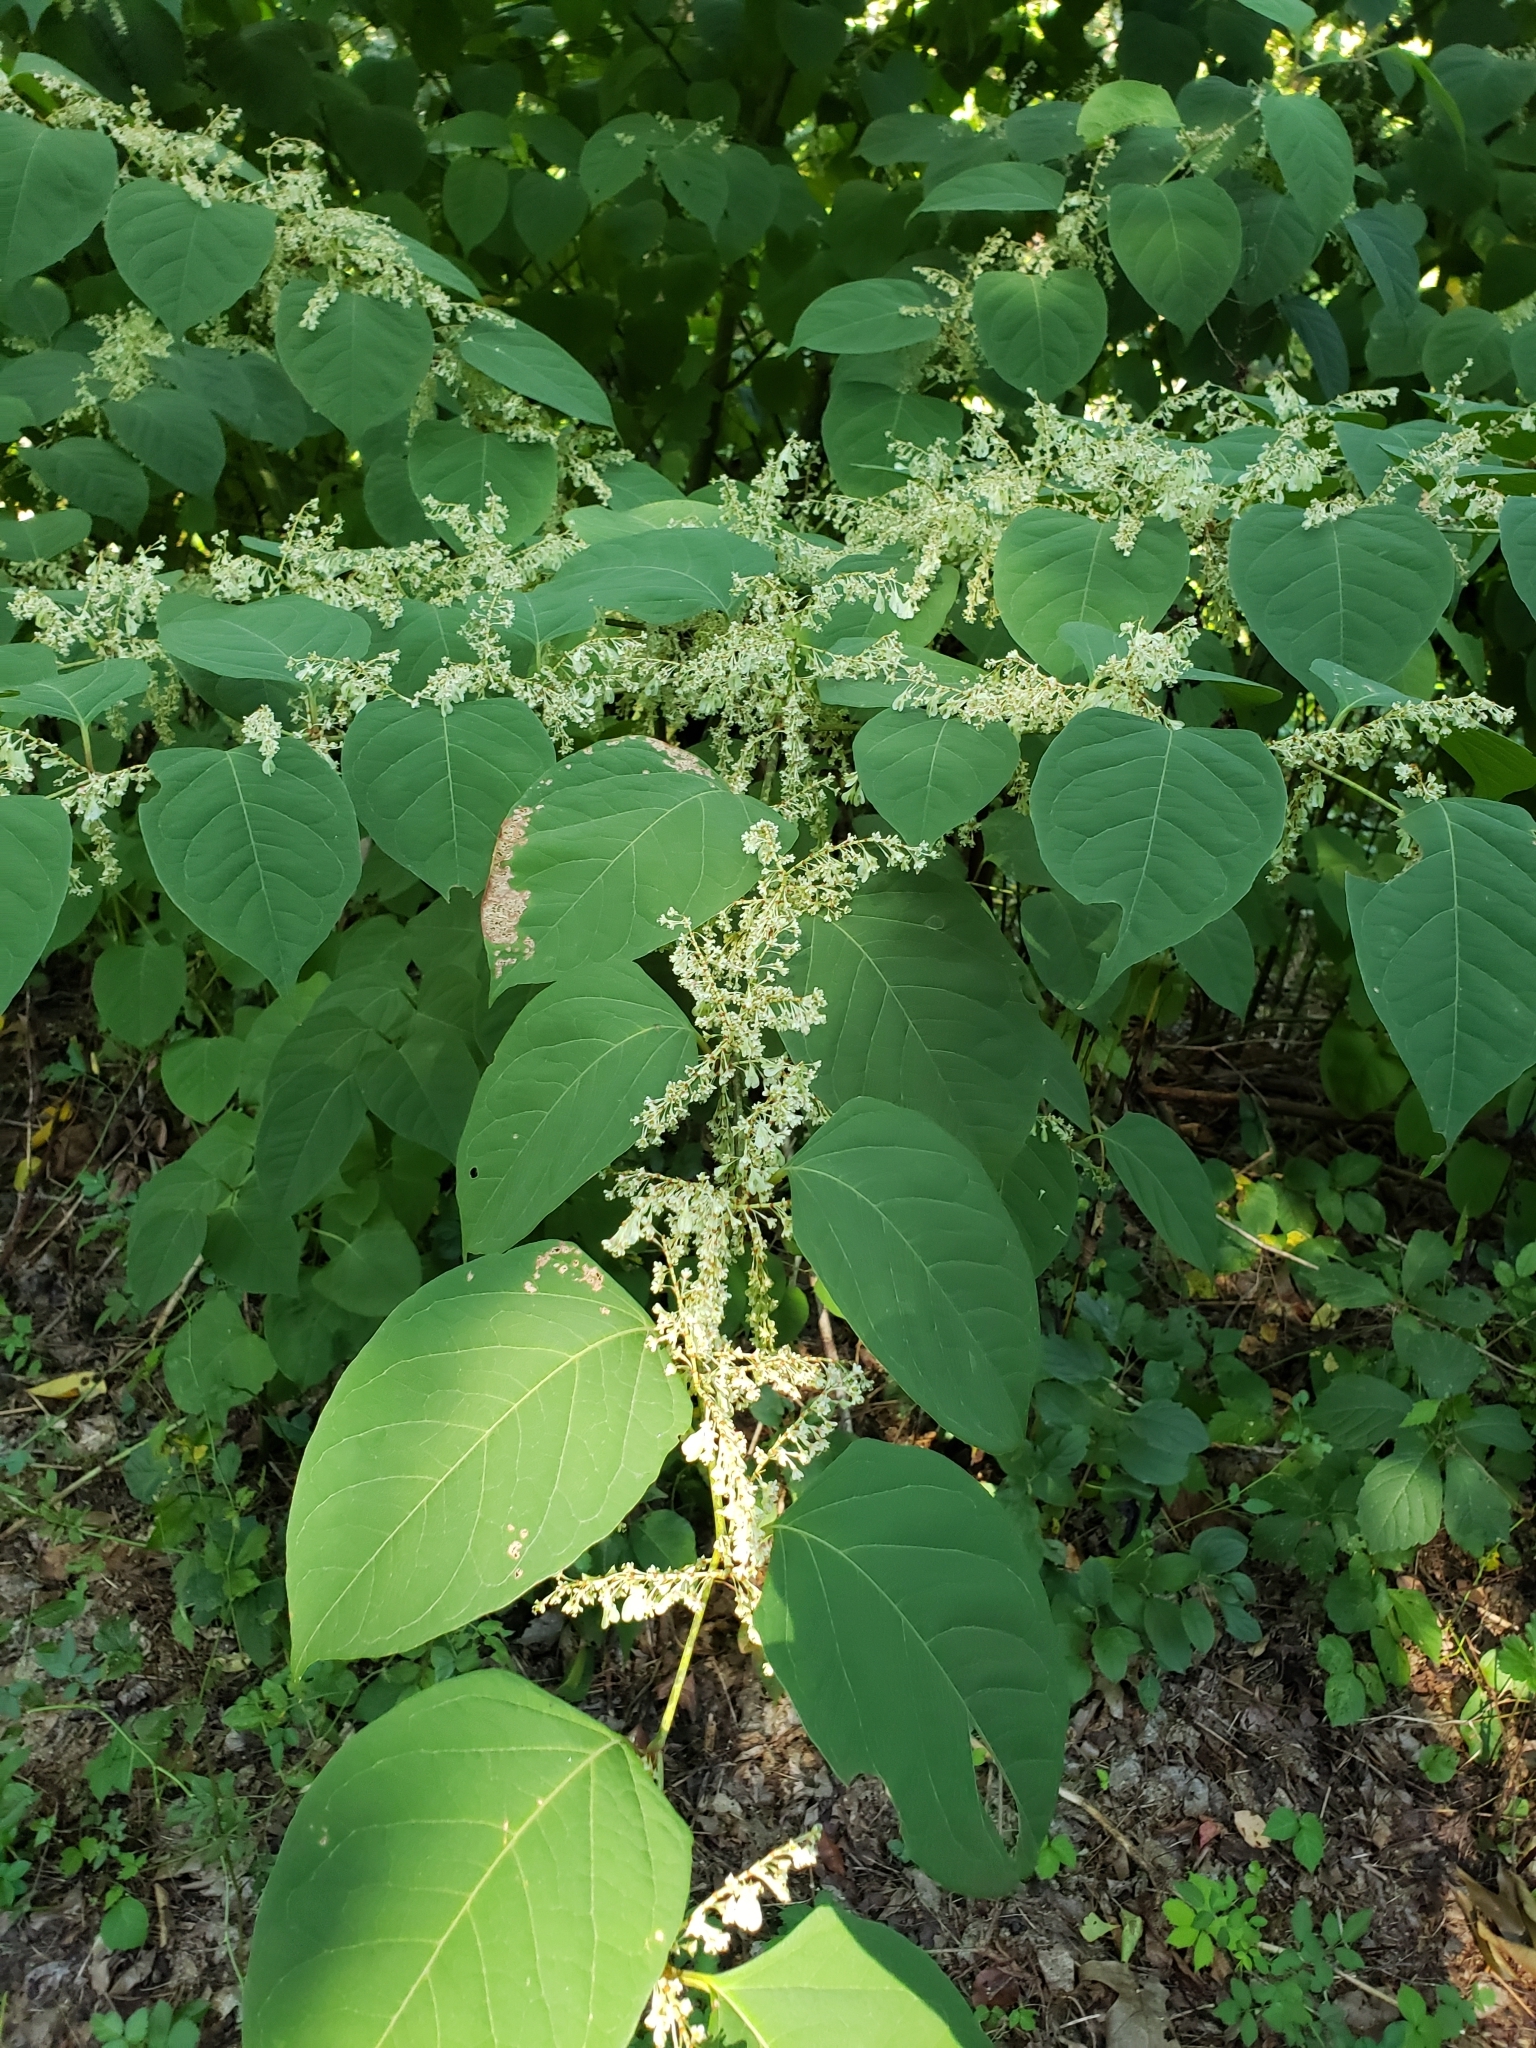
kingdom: Plantae
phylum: Tracheophyta
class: Magnoliopsida
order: Caryophyllales
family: Polygonaceae
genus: Reynoutria
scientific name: Reynoutria japonica
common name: Japanese knotweed
